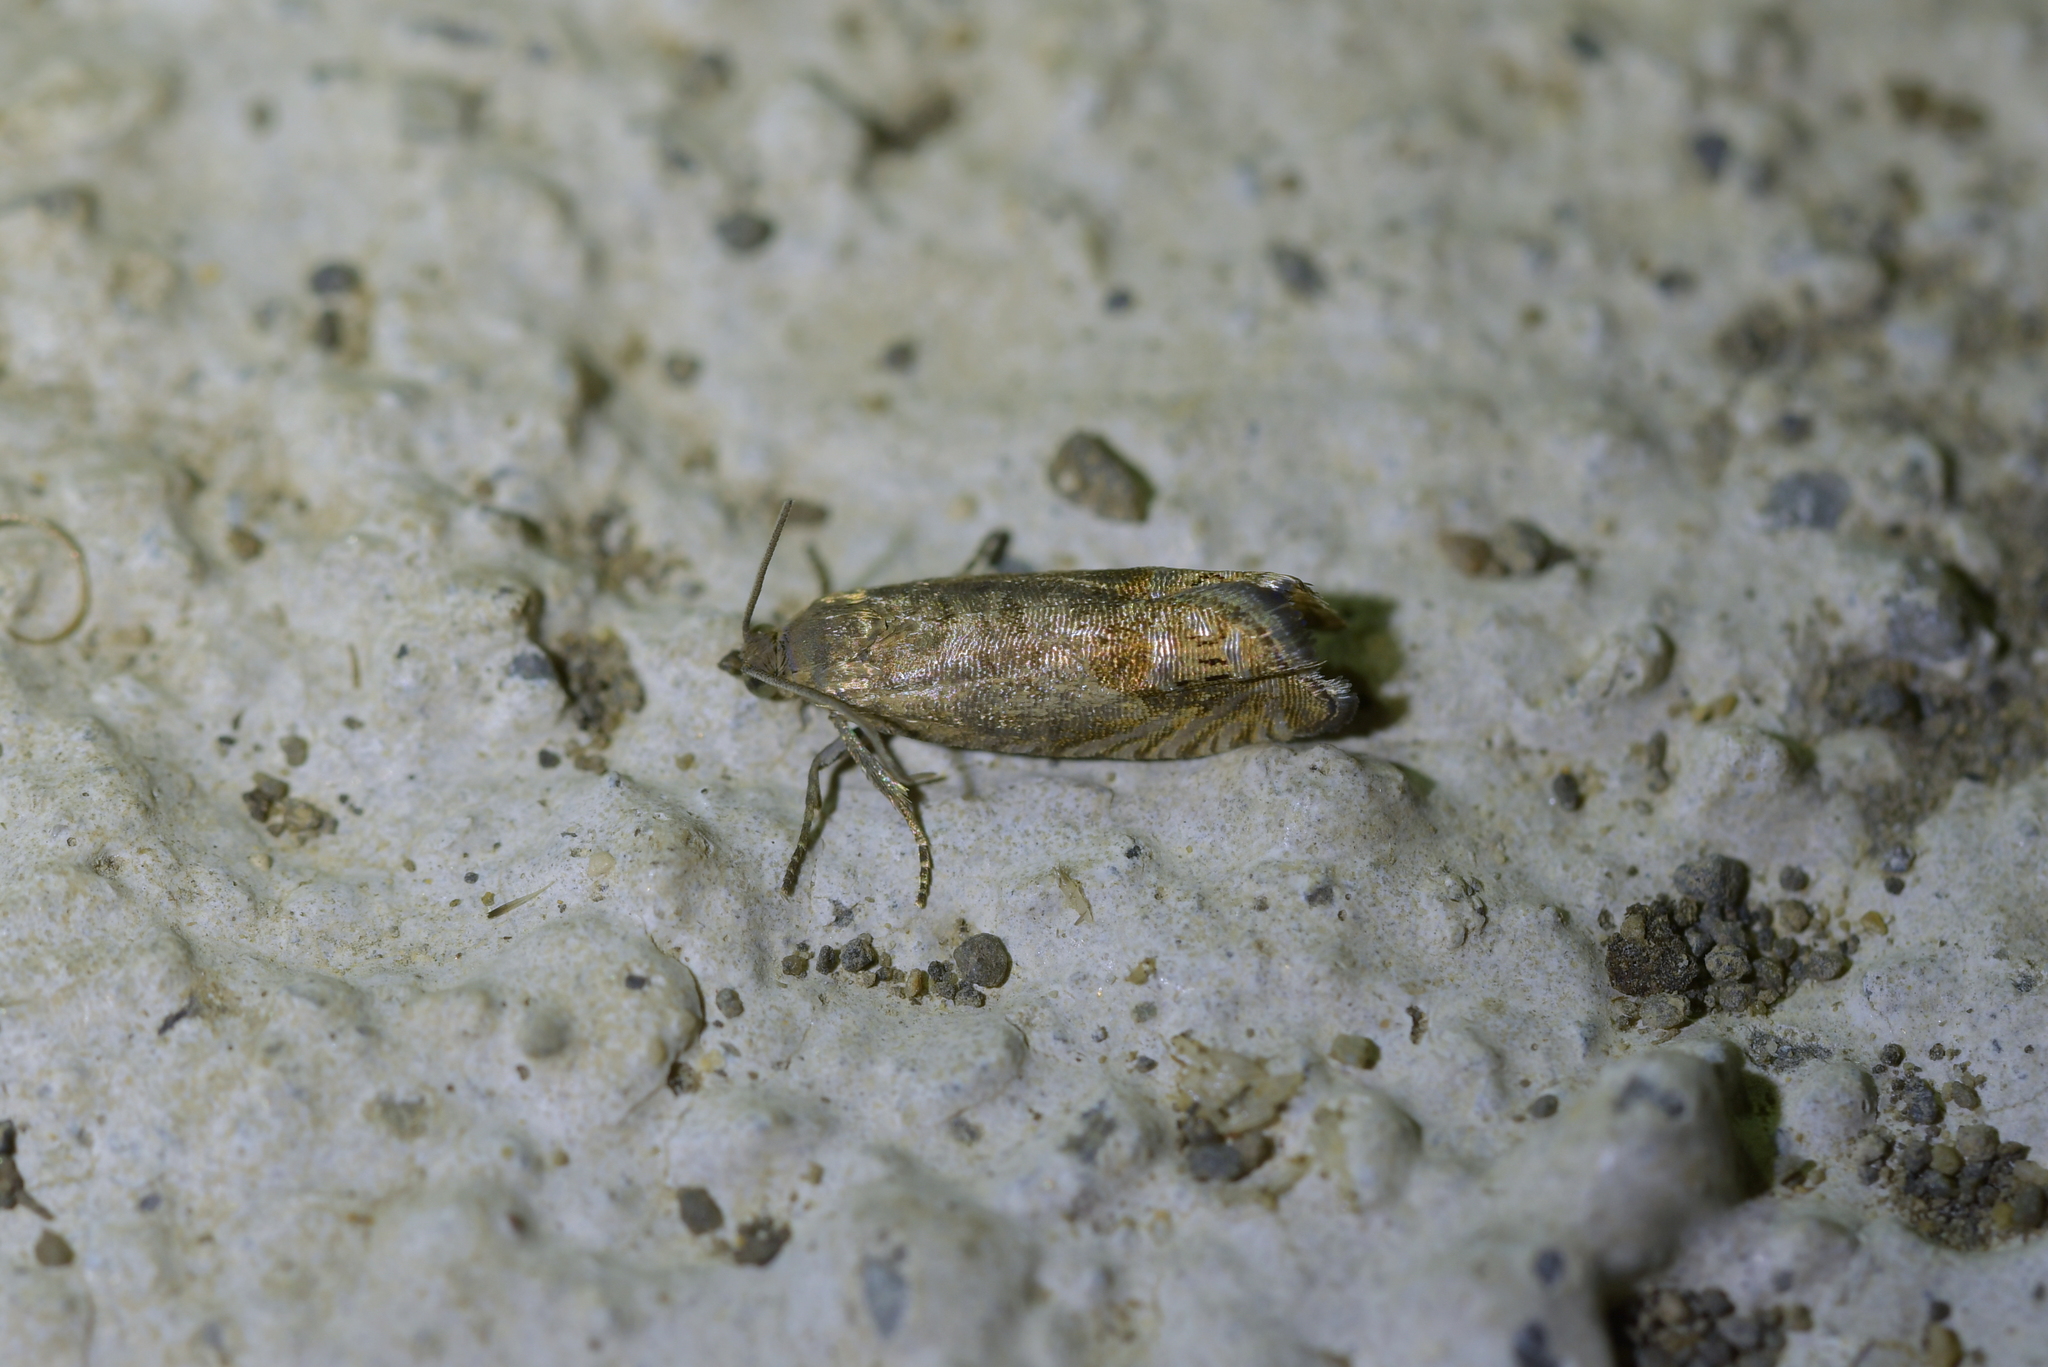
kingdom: Animalia
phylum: Arthropoda
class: Insecta
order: Lepidoptera
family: Tortricidae
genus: Cydia
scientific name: Cydia succedana
